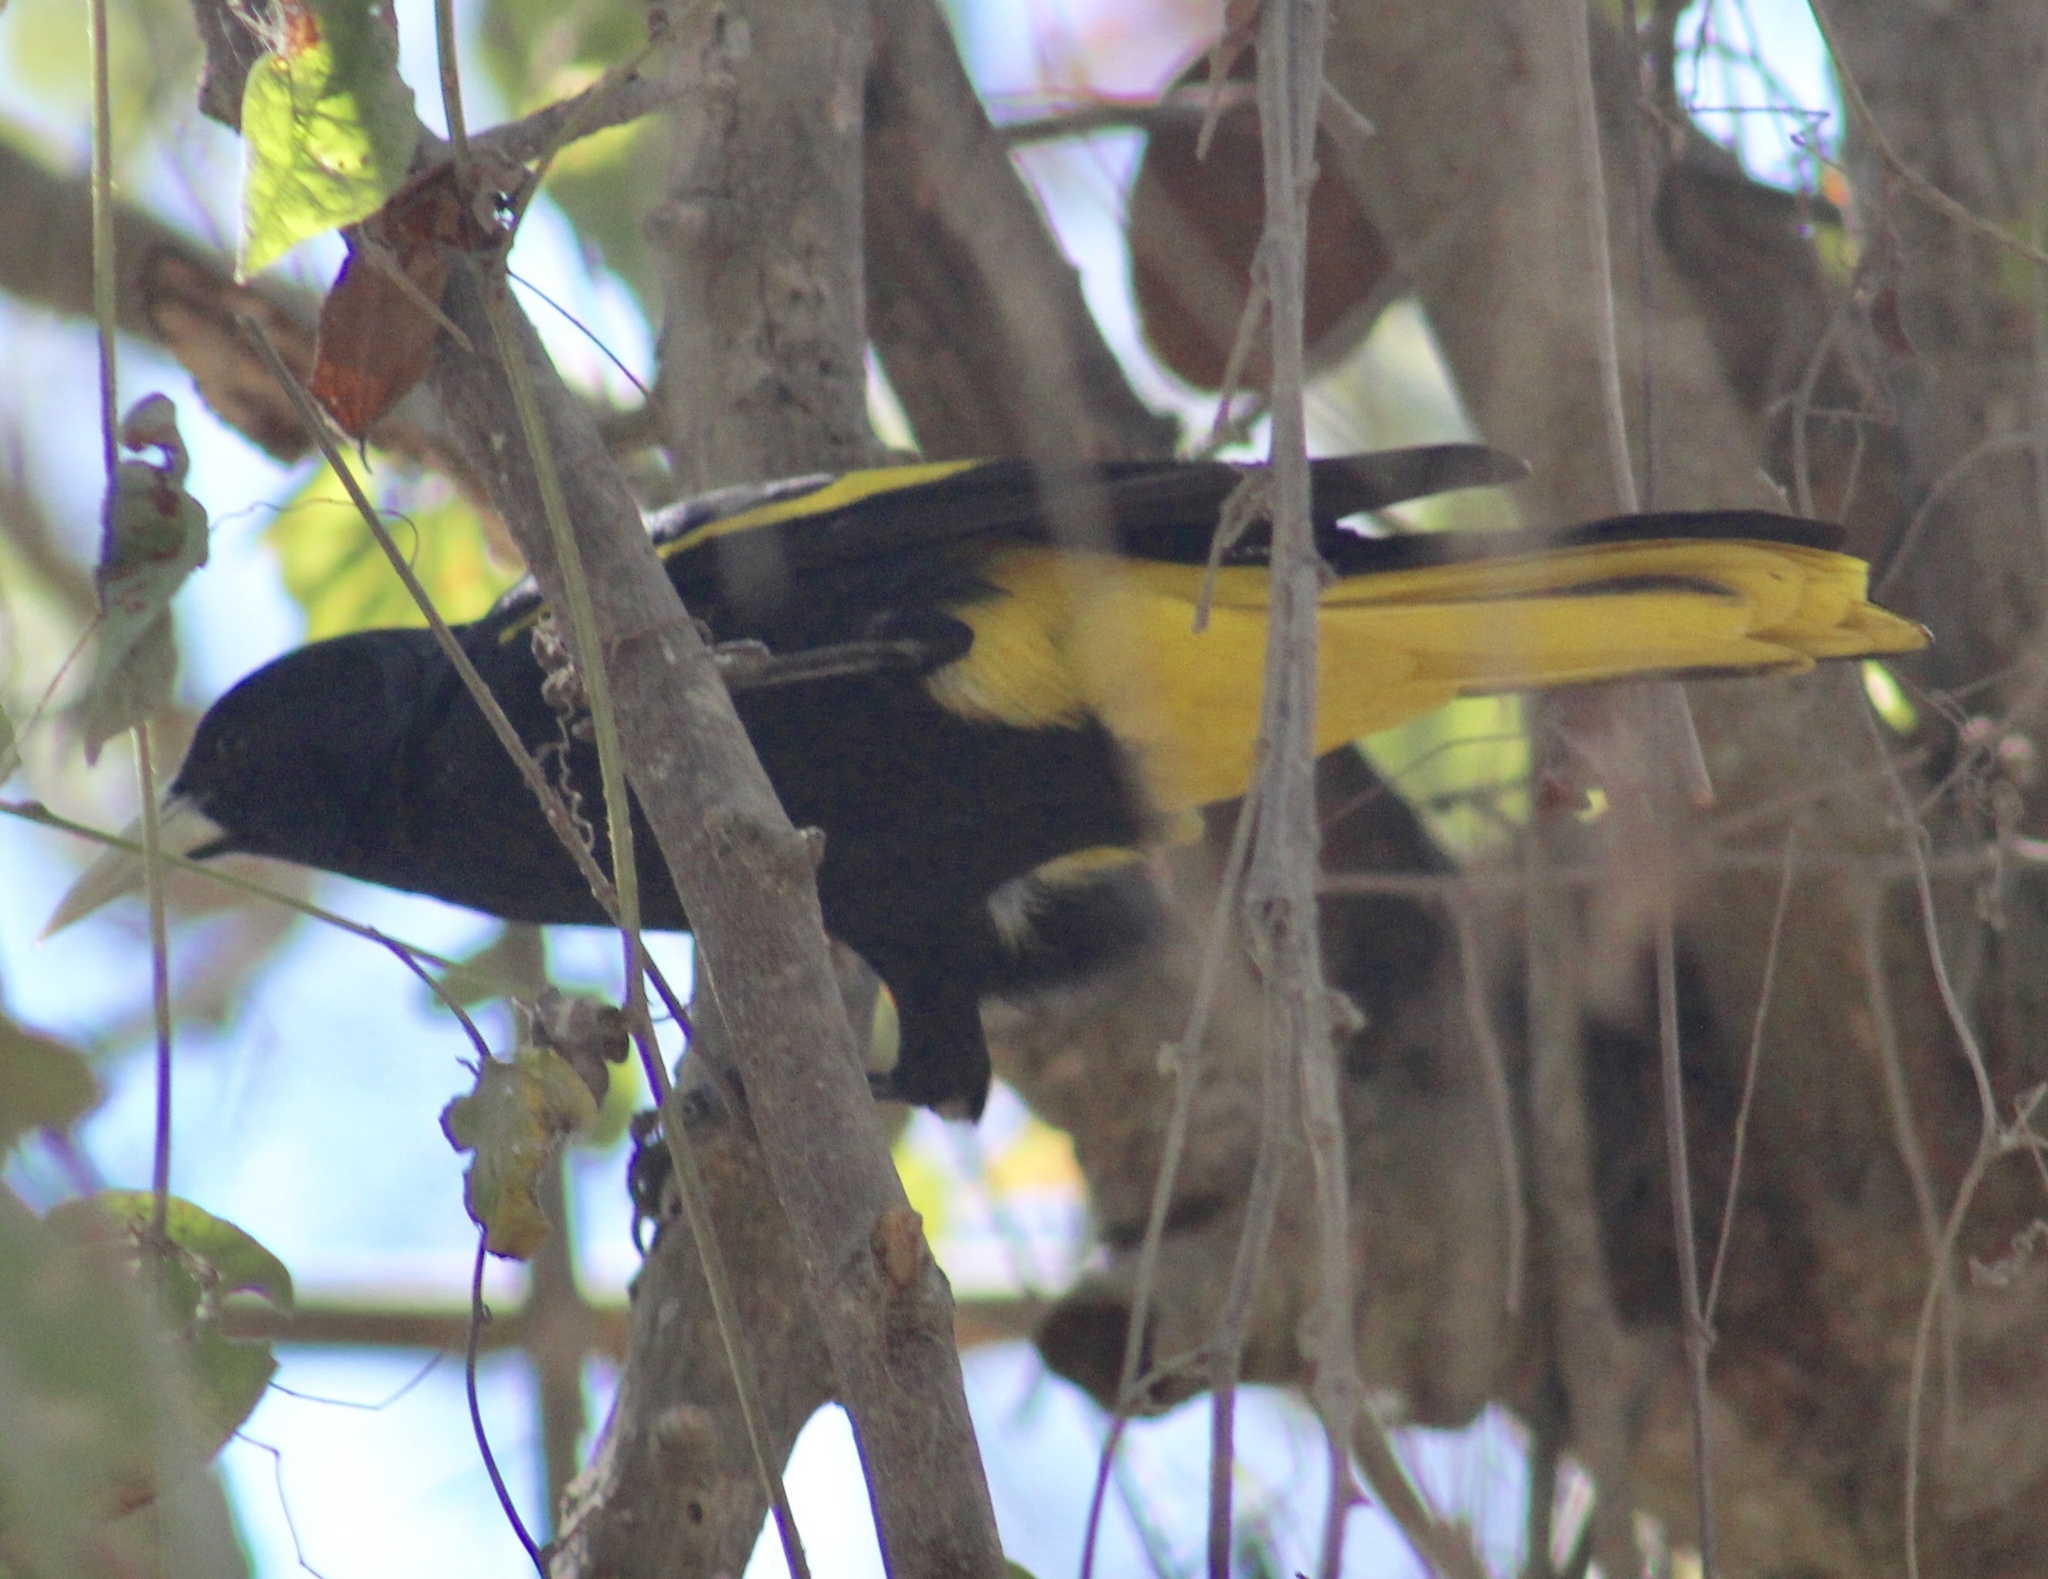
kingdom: Animalia
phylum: Chordata
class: Aves
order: Passeriformes
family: Icteridae
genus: Cacicus
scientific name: Cacicus melanicterus
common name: Yellow-winged cacique
